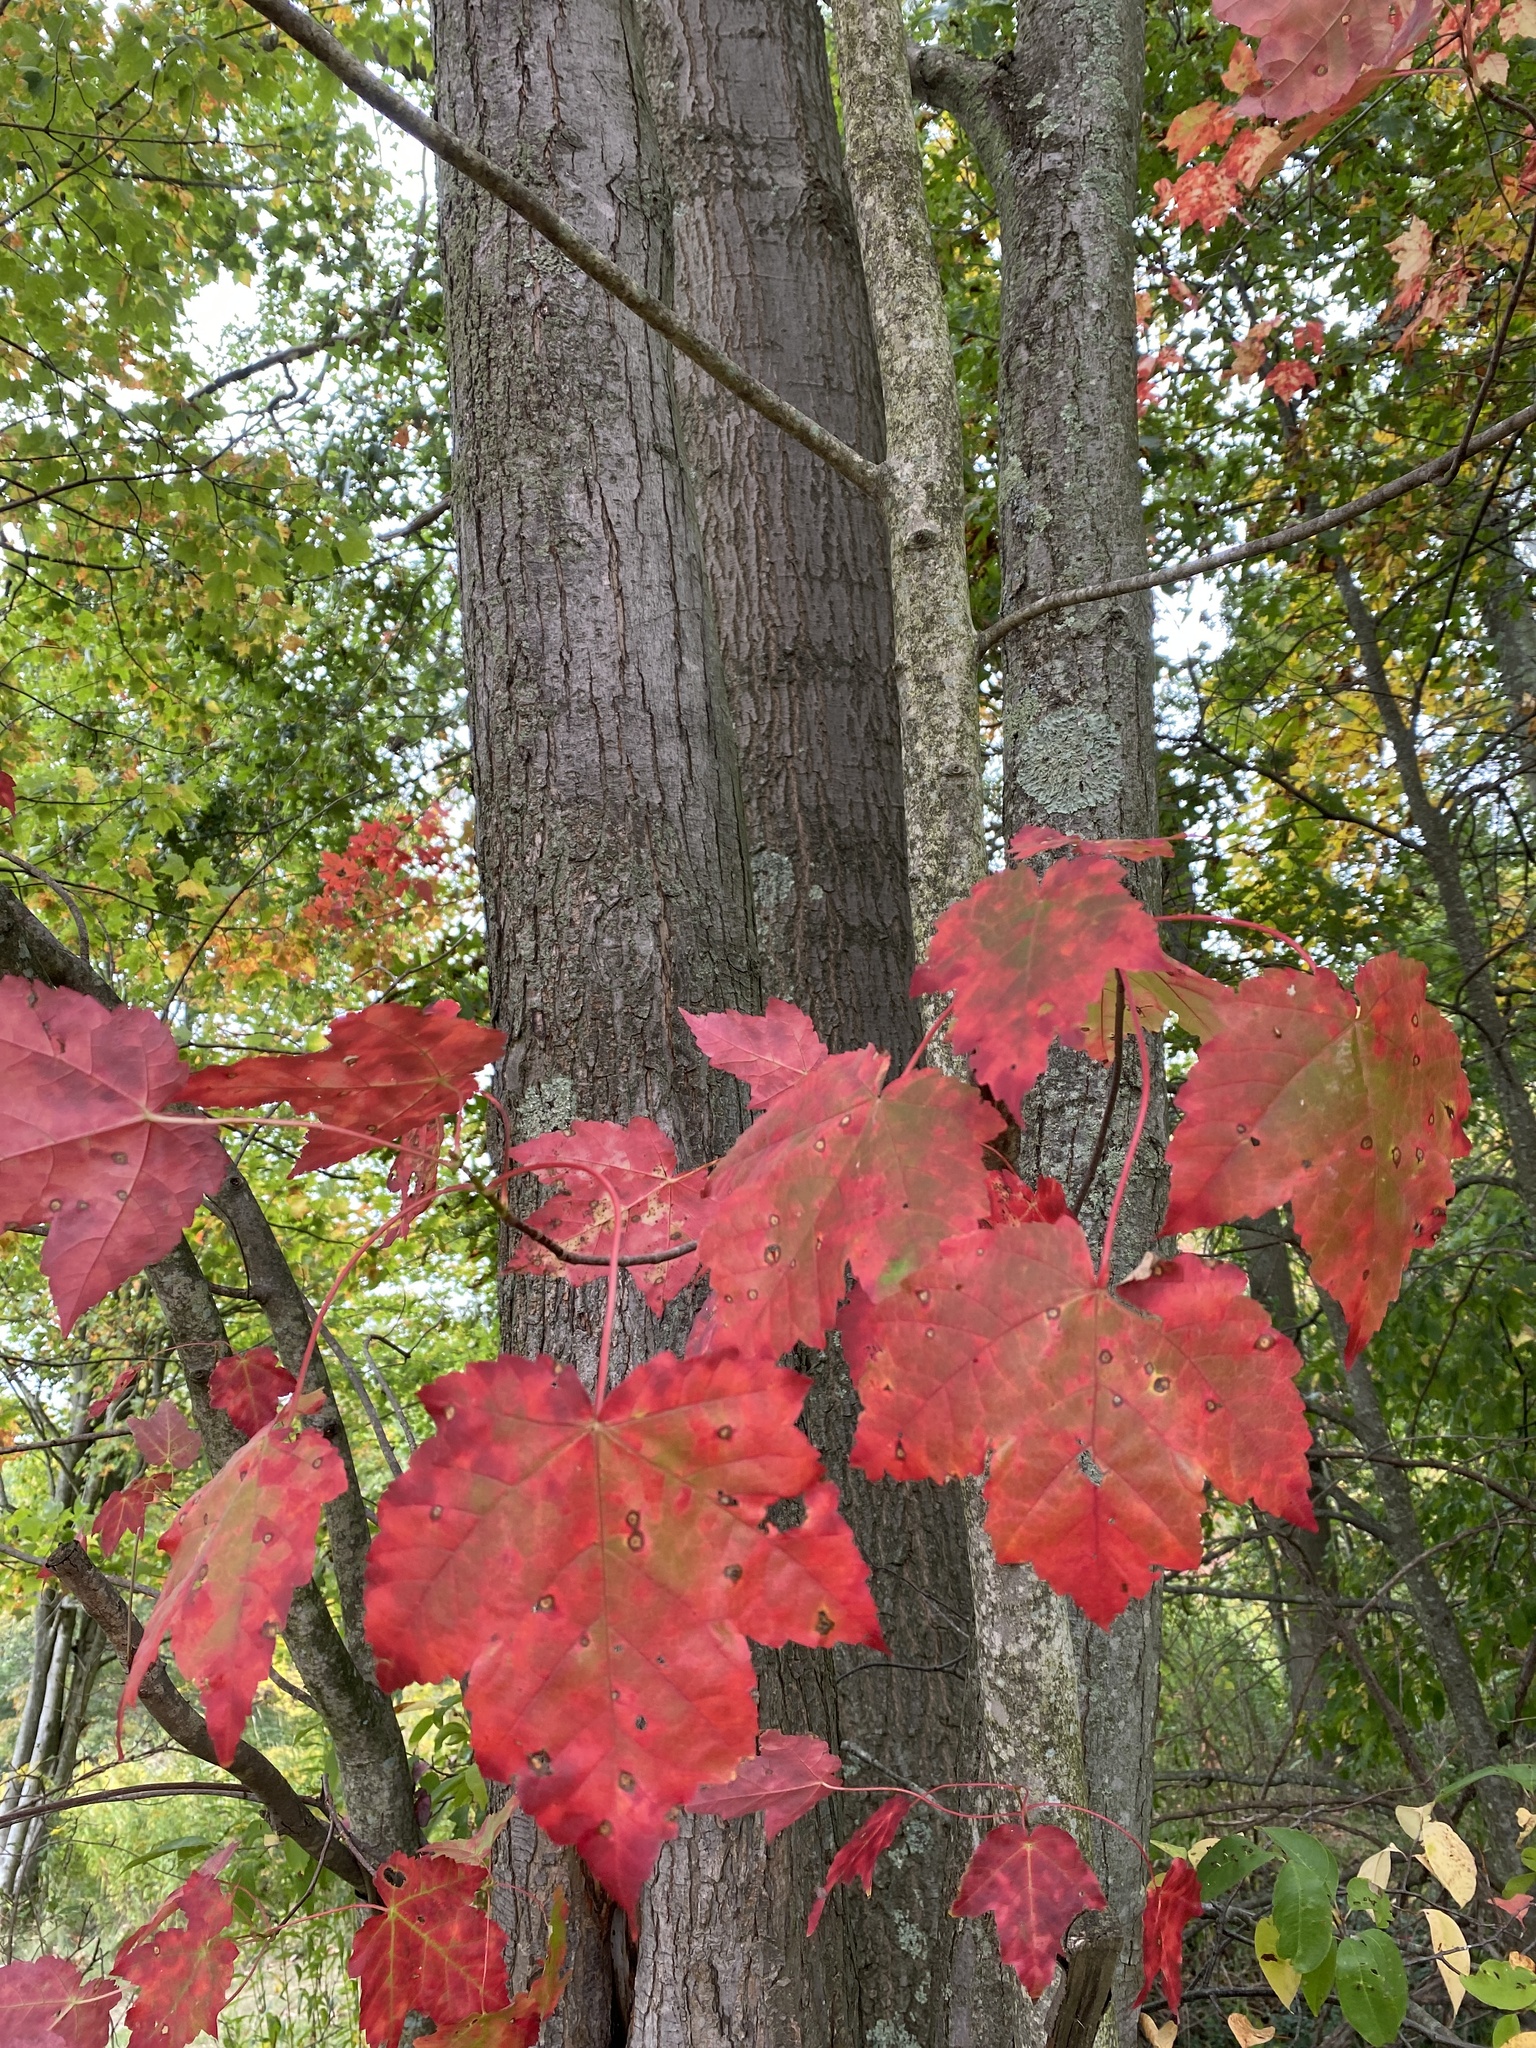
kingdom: Plantae
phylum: Tracheophyta
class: Magnoliopsida
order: Sapindales
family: Sapindaceae
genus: Acer
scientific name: Acer rubrum
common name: Red maple
